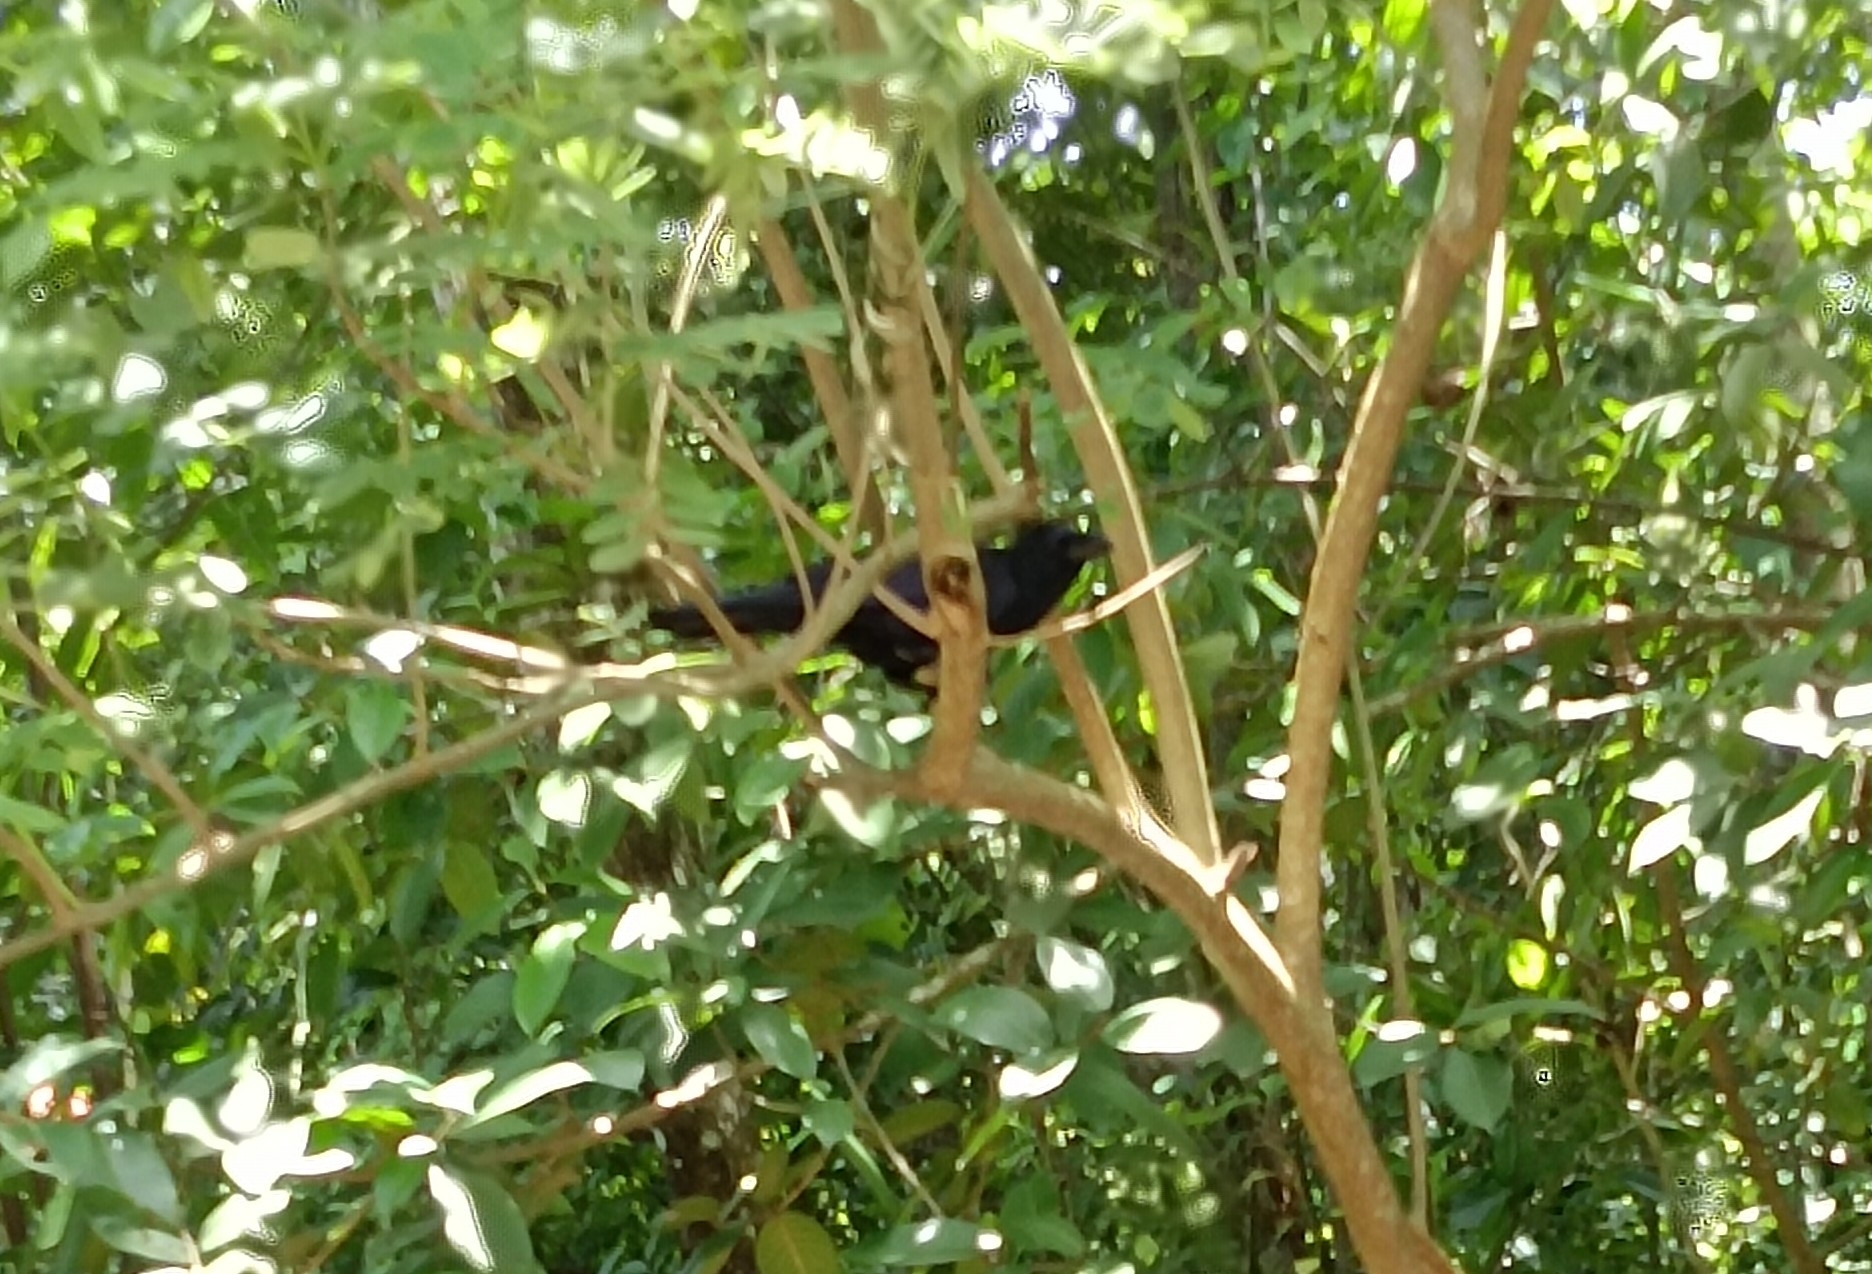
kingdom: Animalia
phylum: Chordata
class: Aves
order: Passeriformes
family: Corvidae
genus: Corvus
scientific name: Corvus macrorhynchos
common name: Large-billed crow
